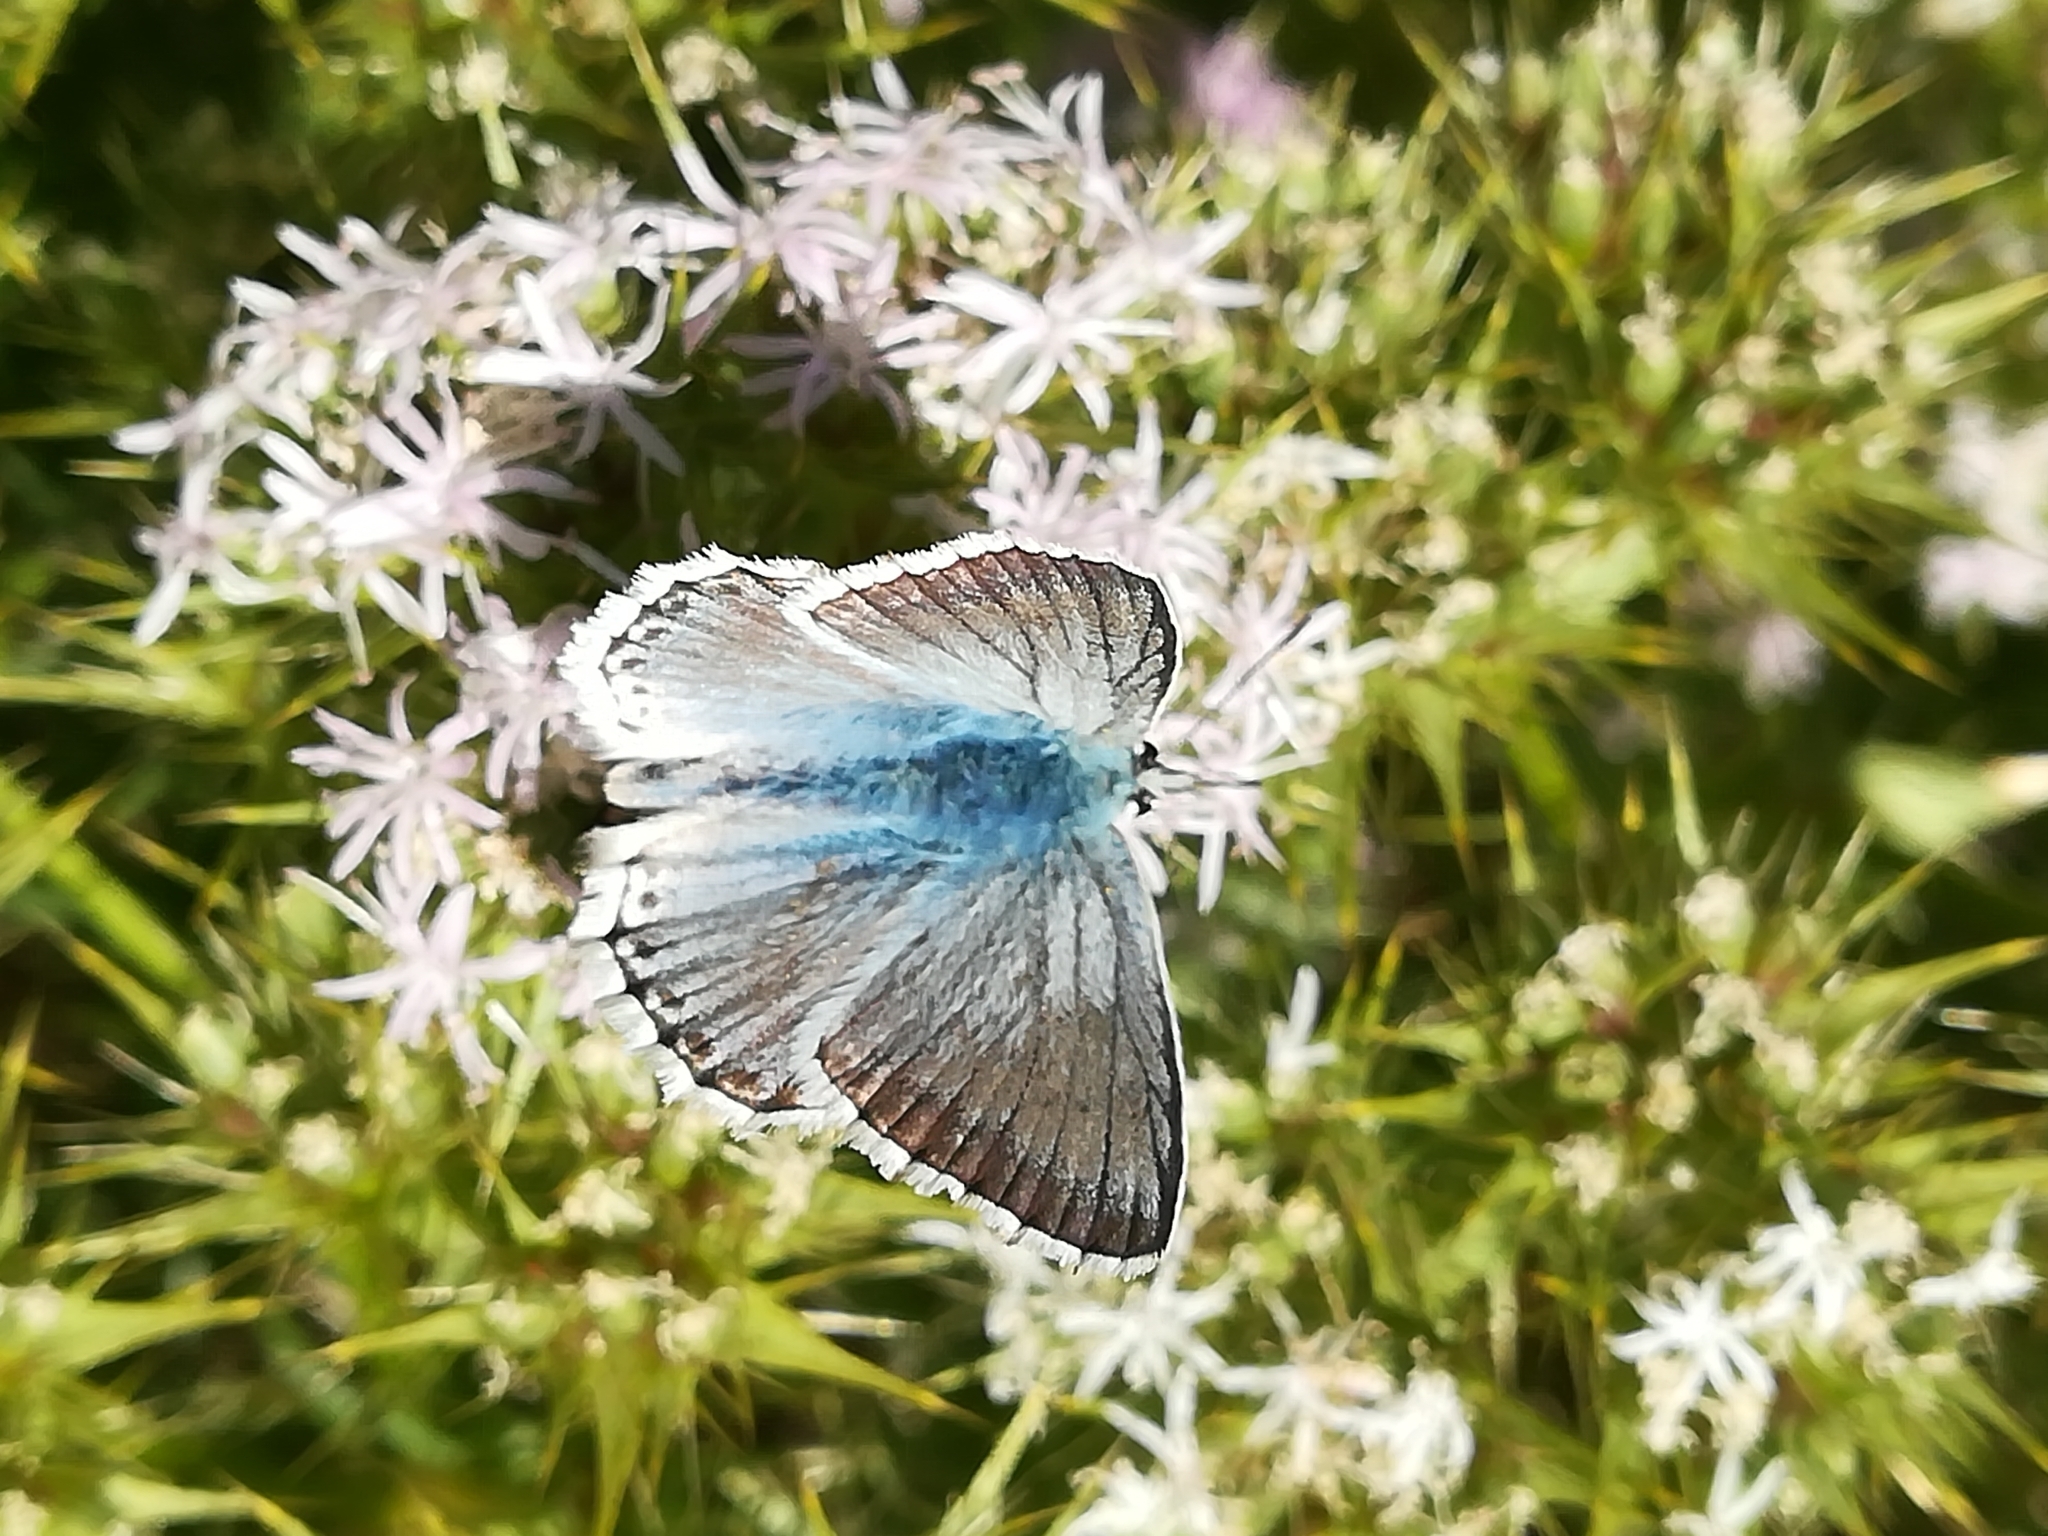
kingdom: Animalia
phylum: Arthropoda
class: Insecta
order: Lepidoptera
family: Lycaenidae
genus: Lysandra
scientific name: Lysandra coridon
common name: Chalkhill blue
